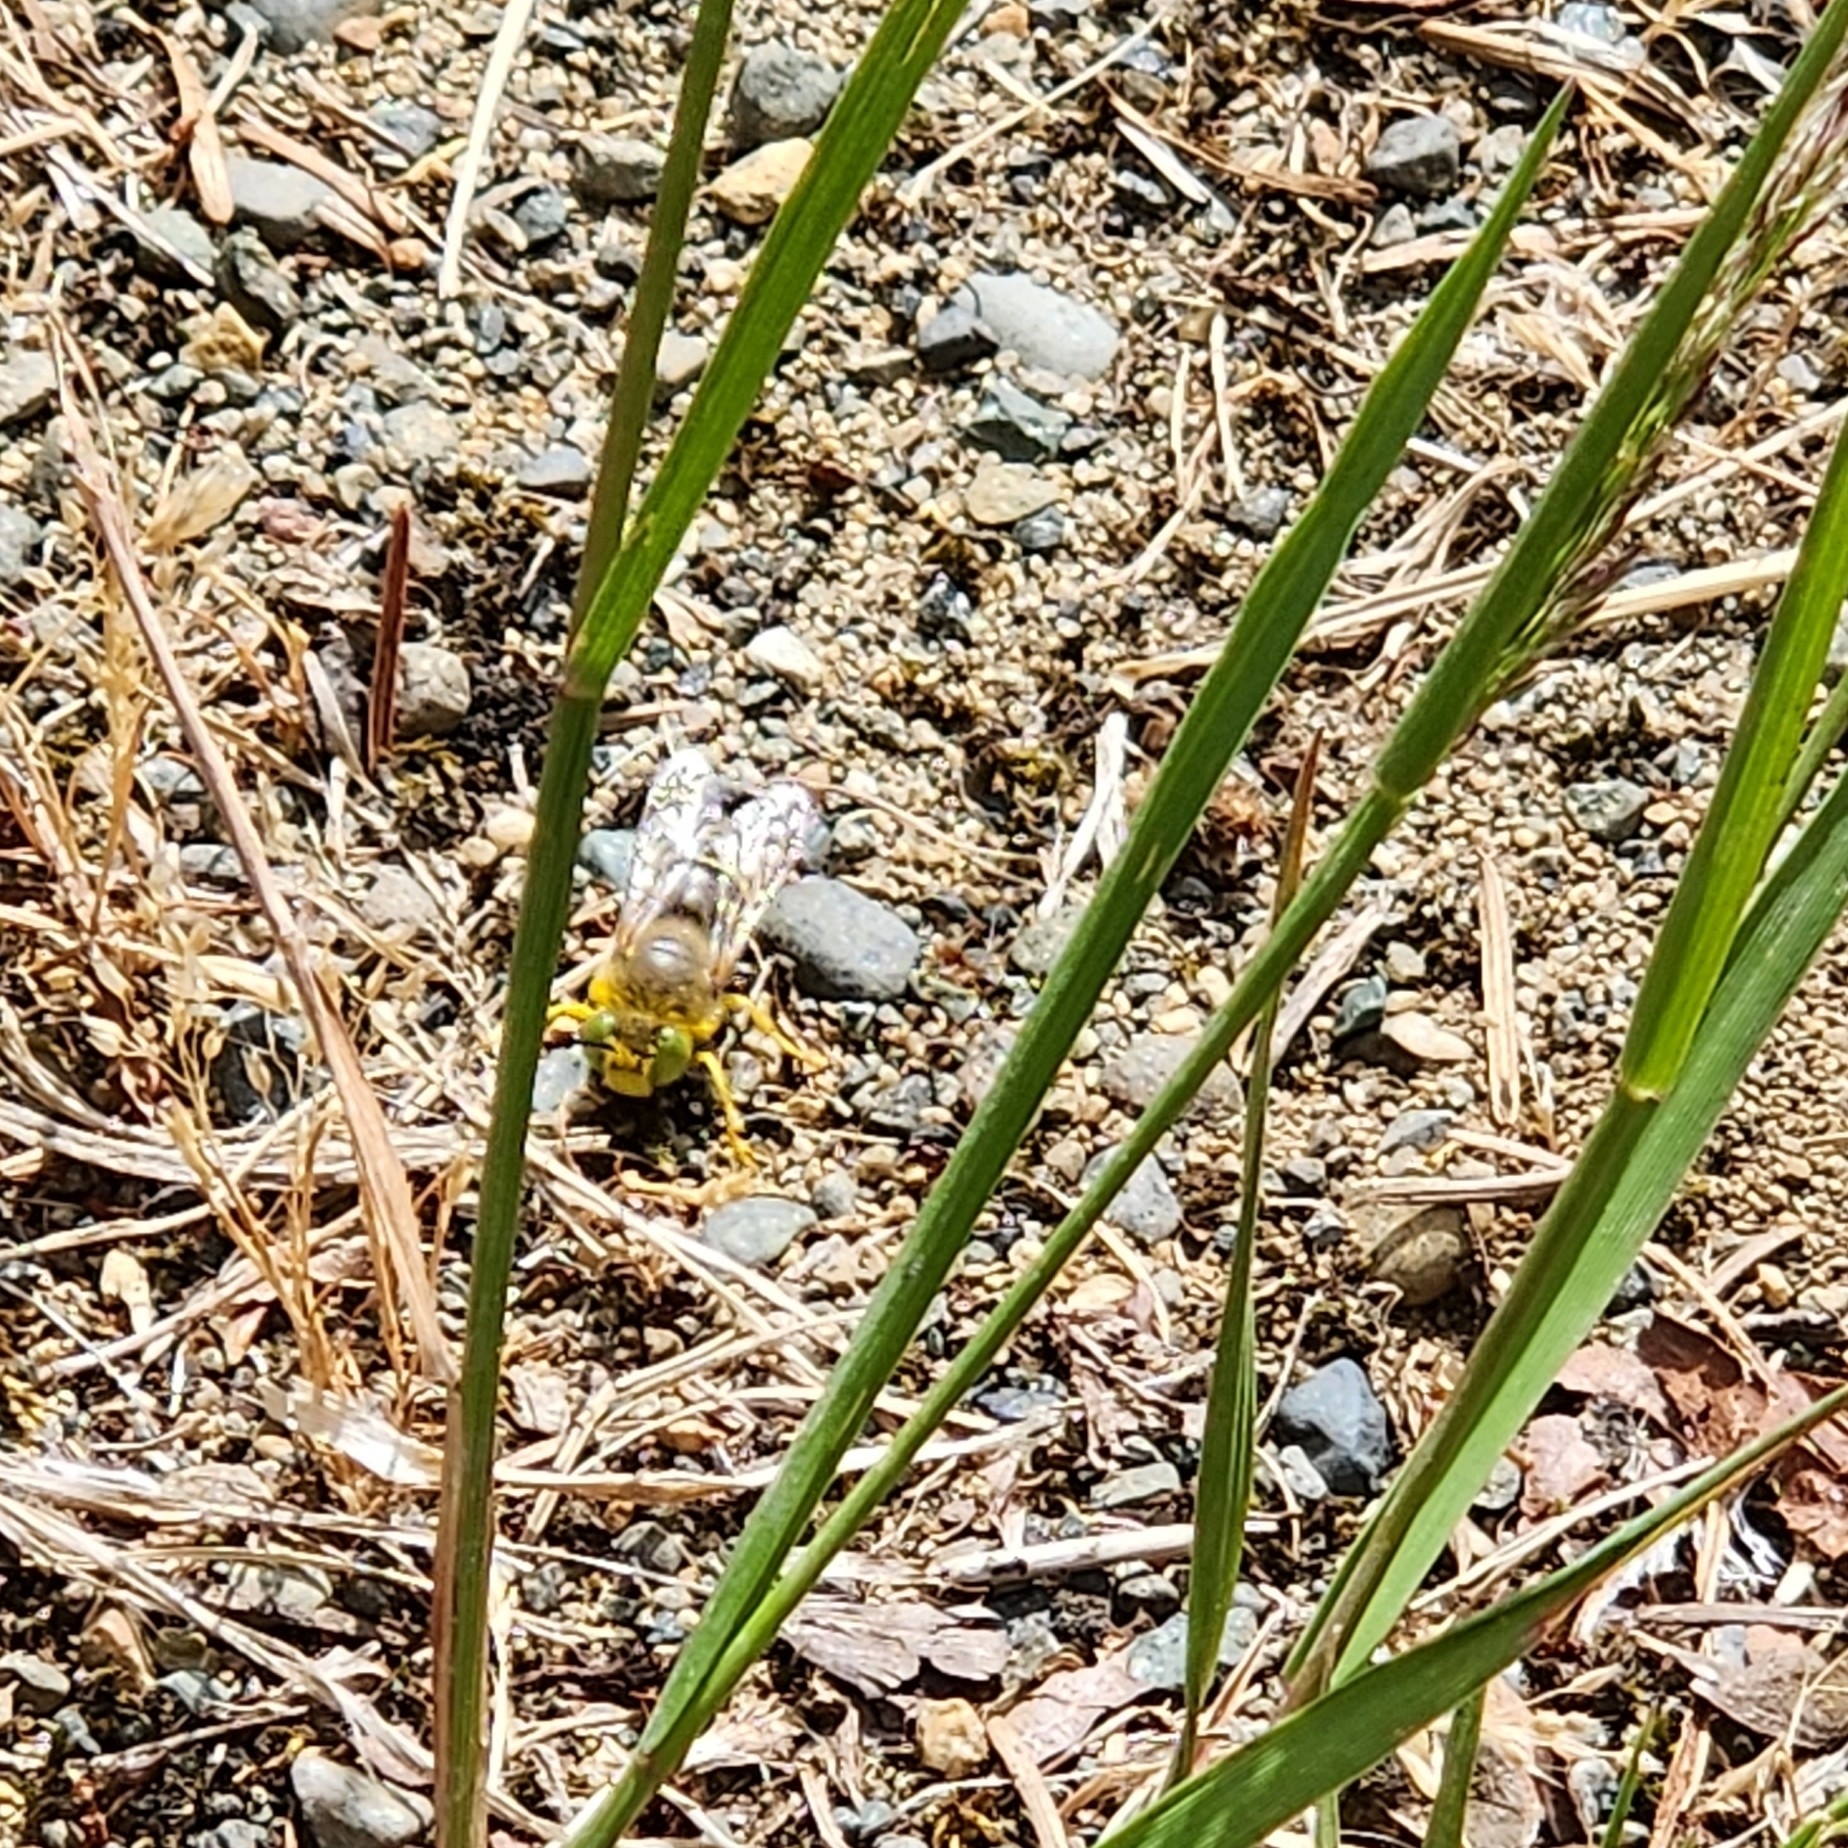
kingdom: Animalia
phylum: Arthropoda
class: Insecta
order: Hymenoptera
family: Crabronidae
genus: Bembix
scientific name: Bembix americana
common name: American sand wasp
